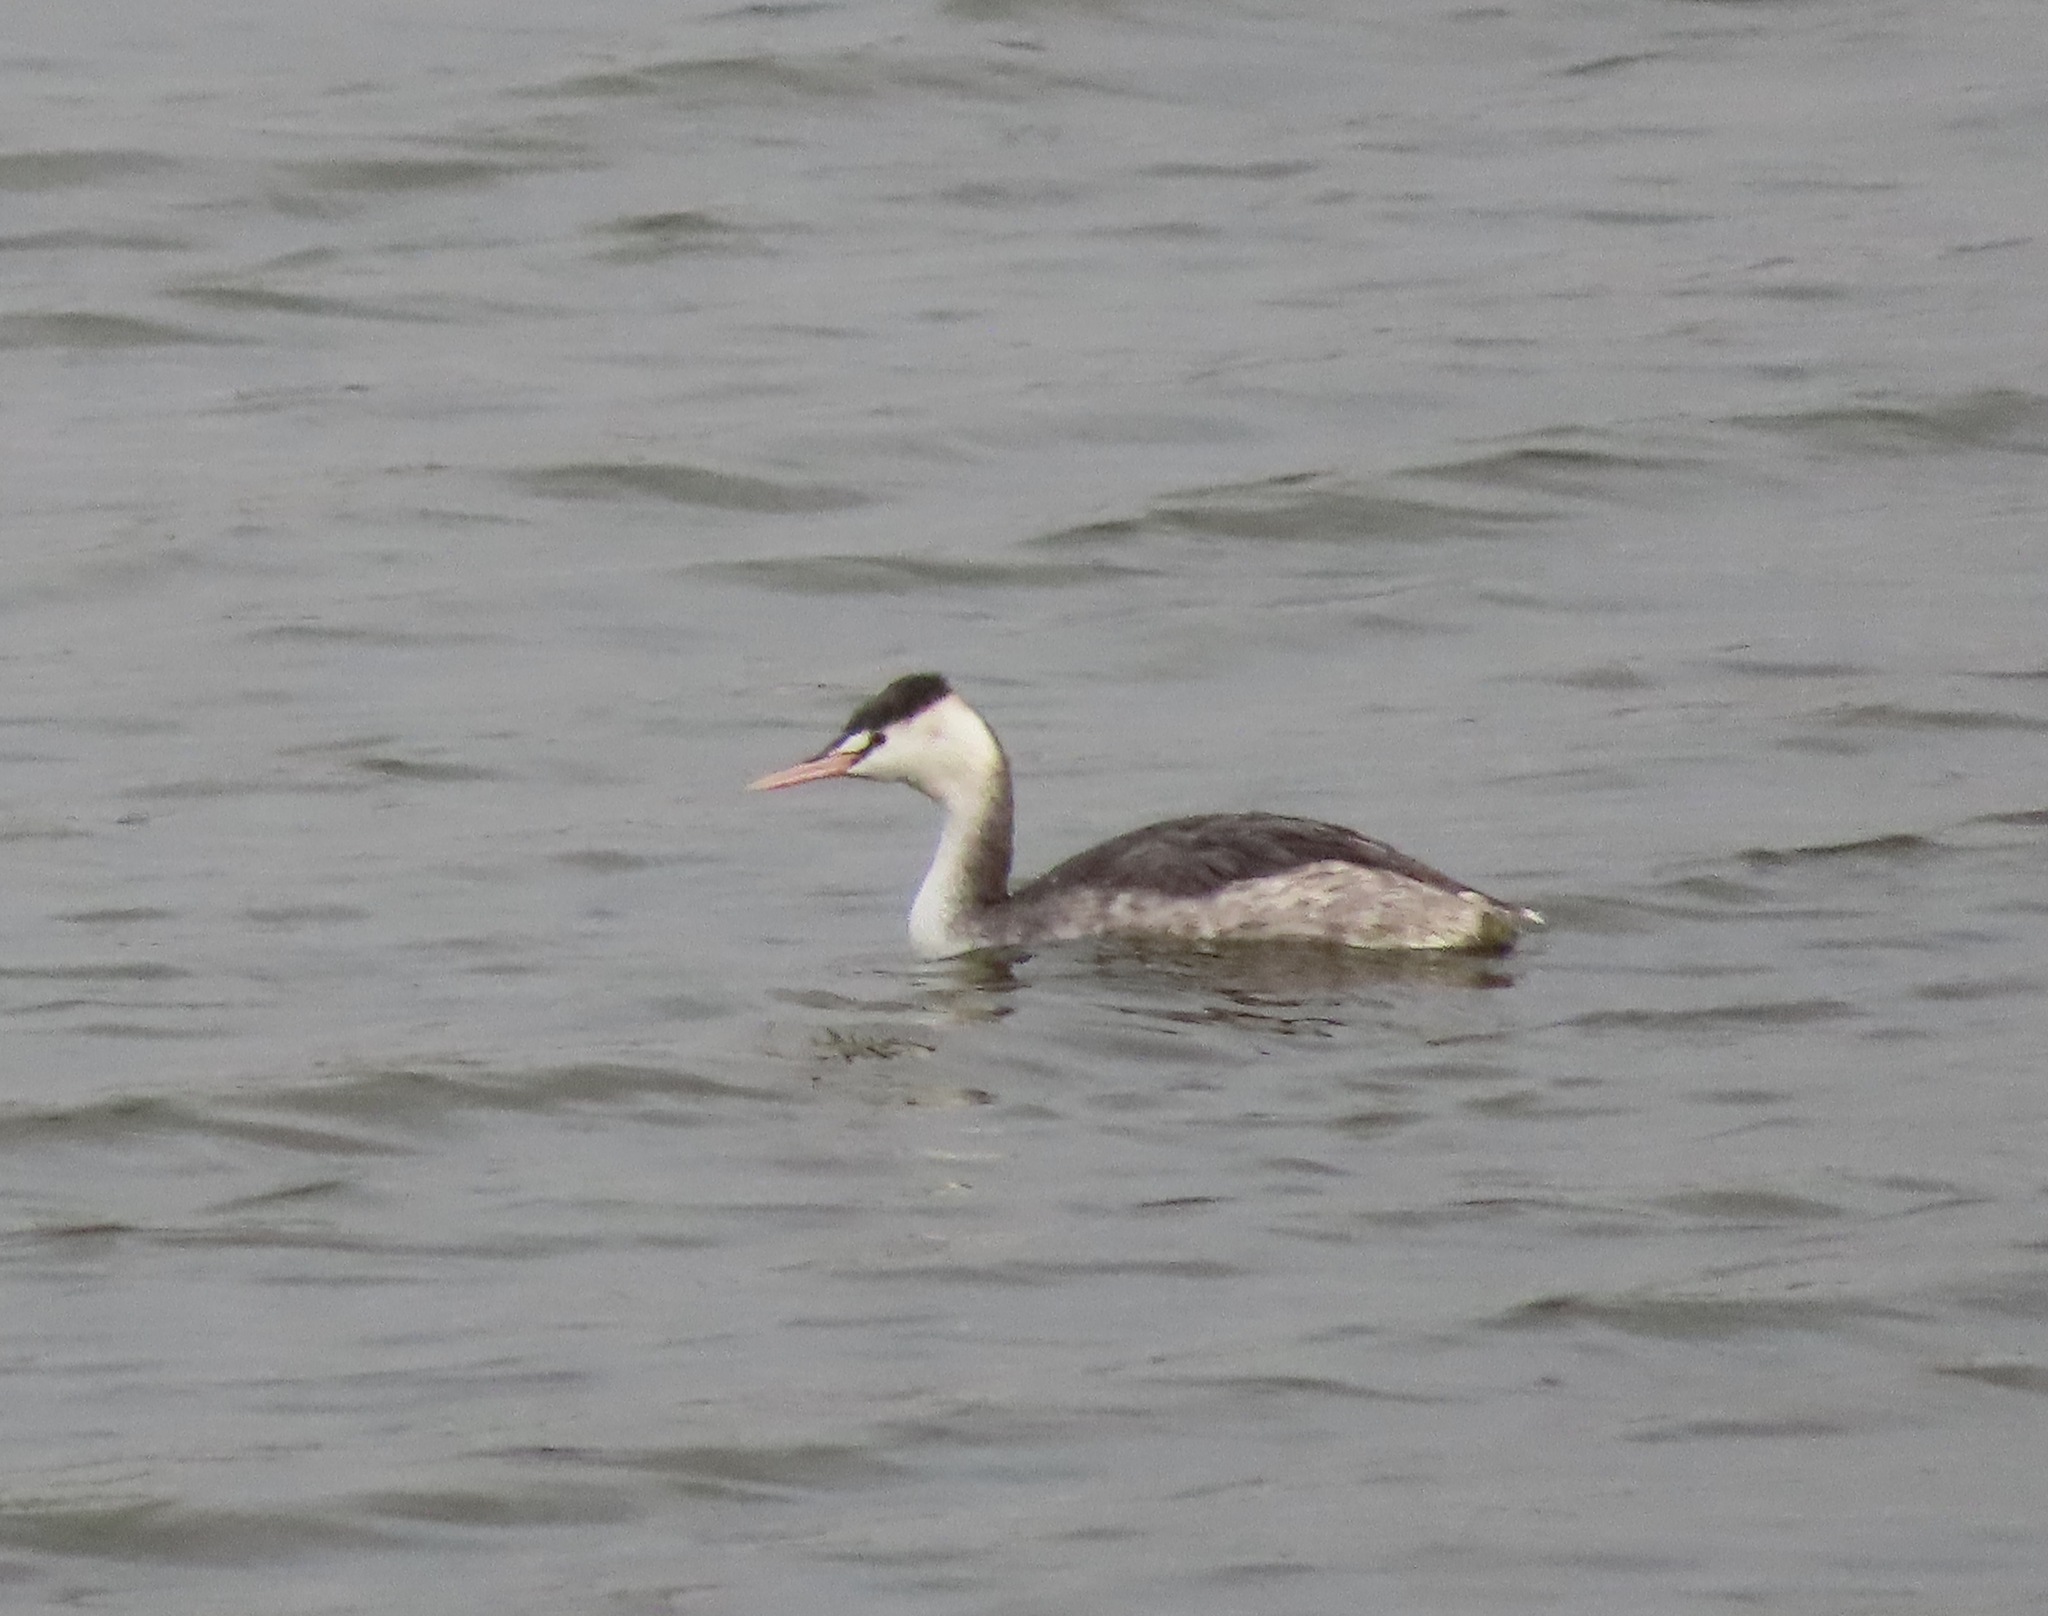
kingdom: Animalia
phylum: Chordata
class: Aves
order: Podicipediformes
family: Podicipedidae
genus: Podiceps
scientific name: Podiceps cristatus
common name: Great crested grebe
